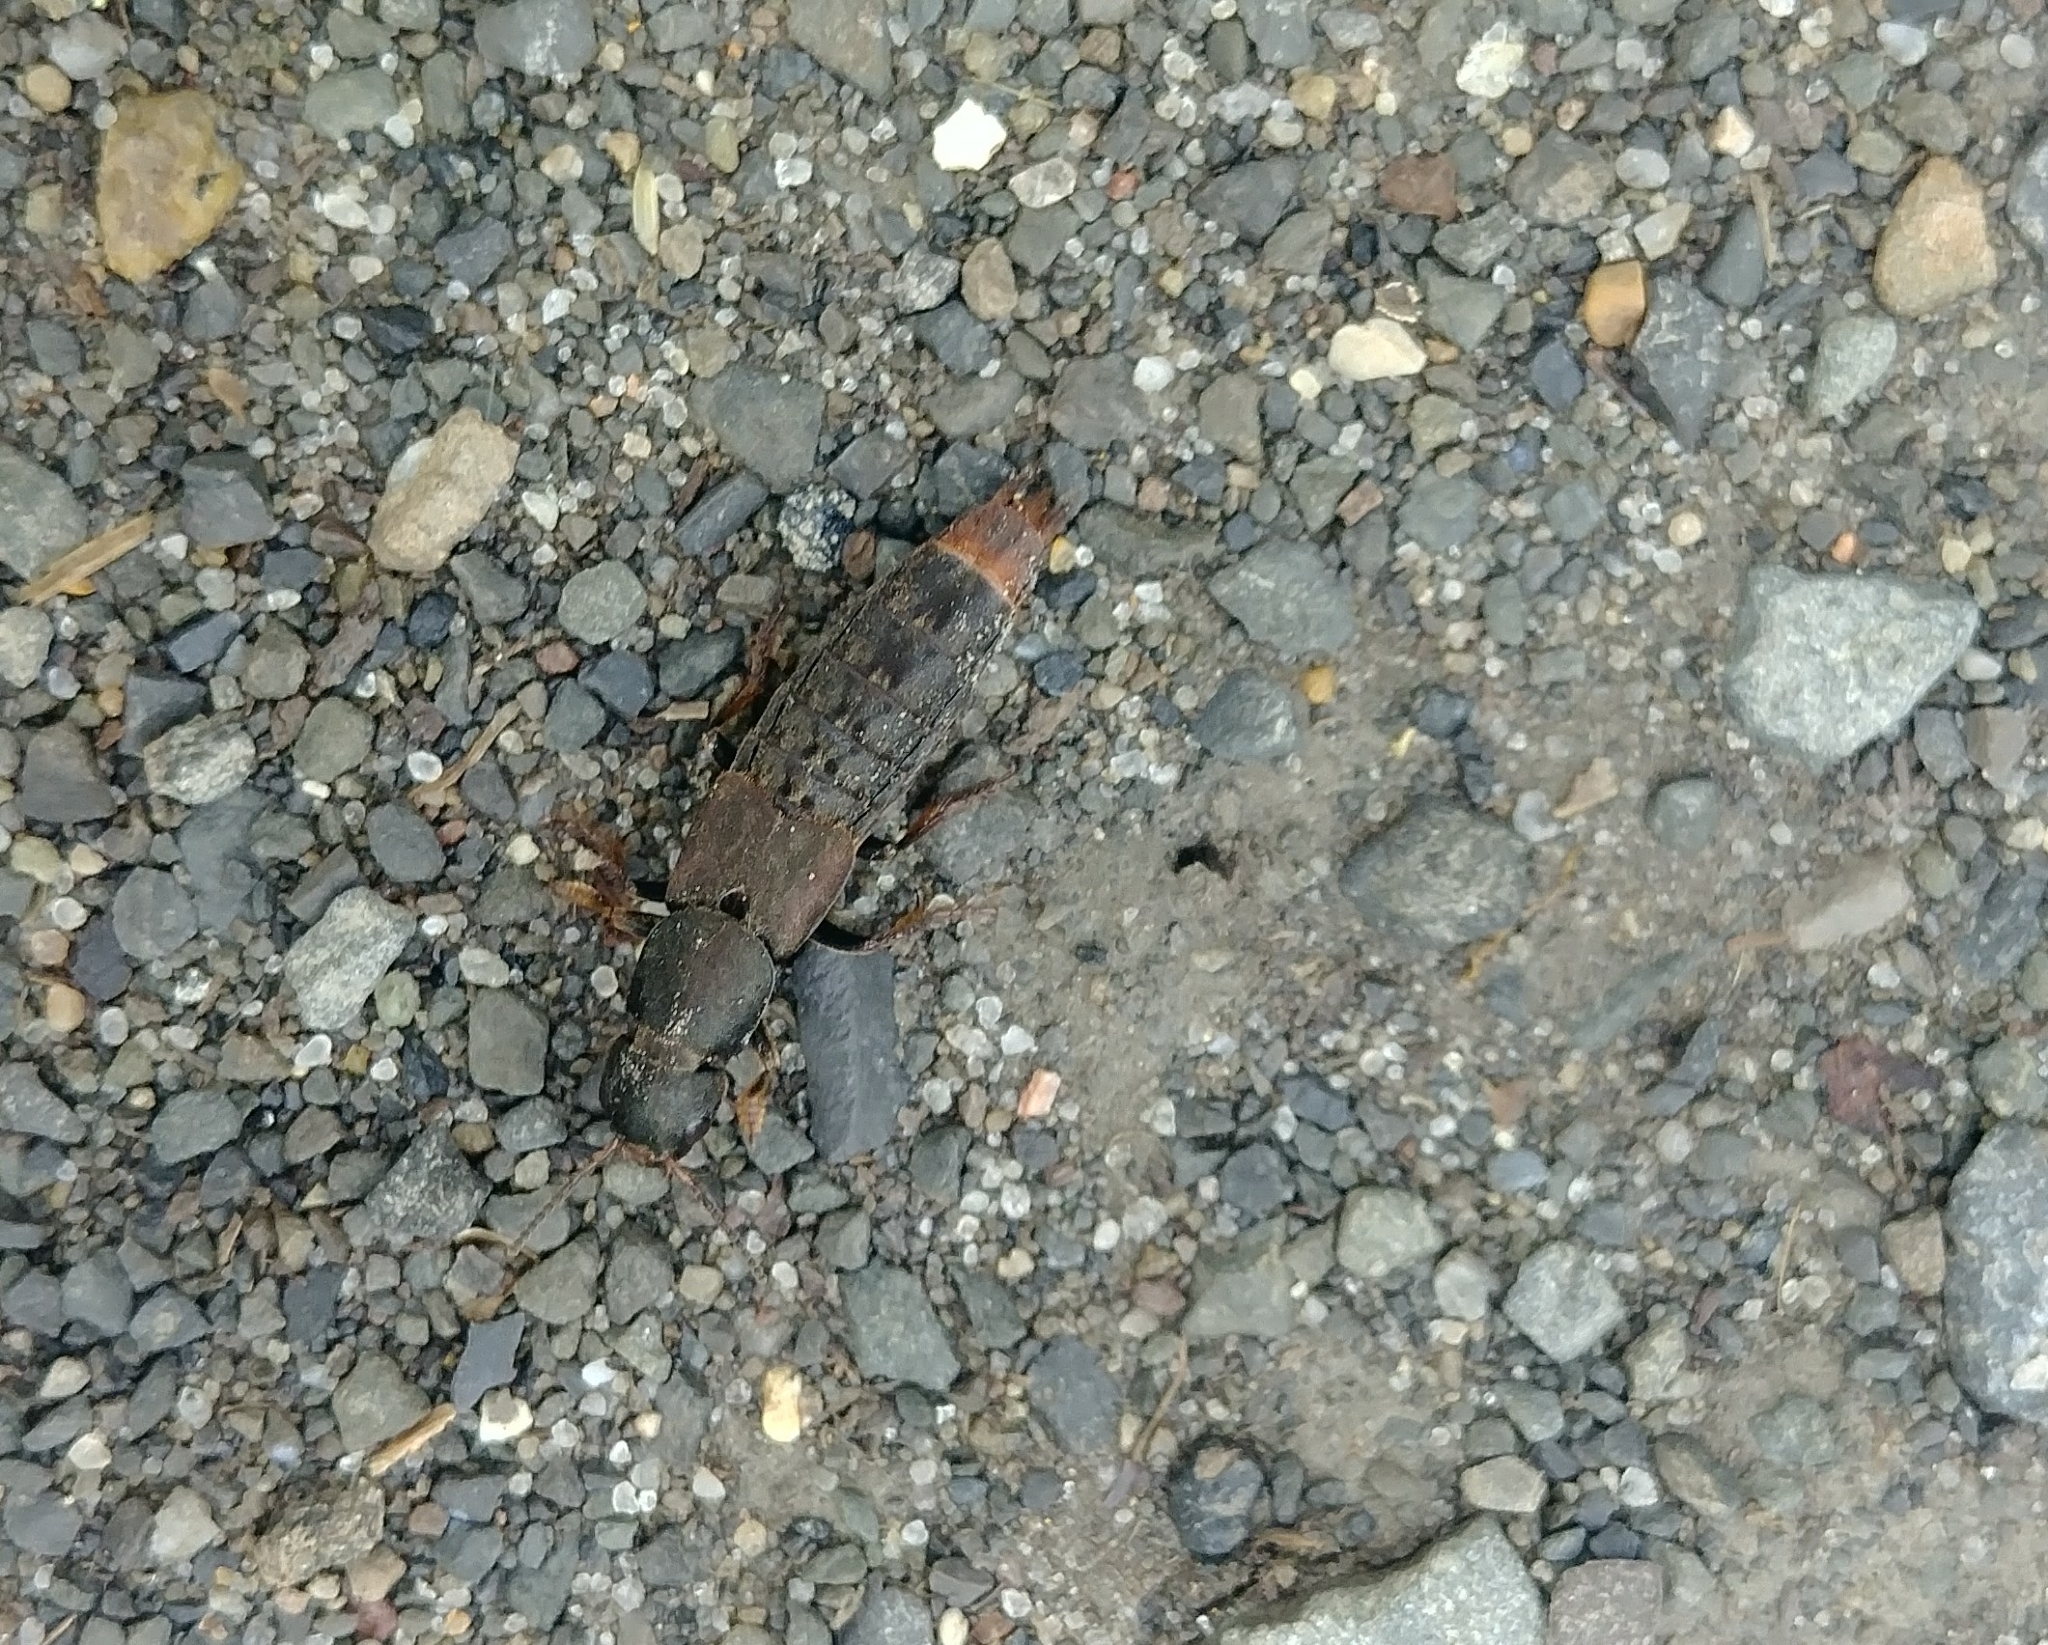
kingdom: Animalia
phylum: Arthropoda
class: Insecta
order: Coleoptera
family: Staphylinidae
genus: Platydracus
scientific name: Platydracus mysticus
